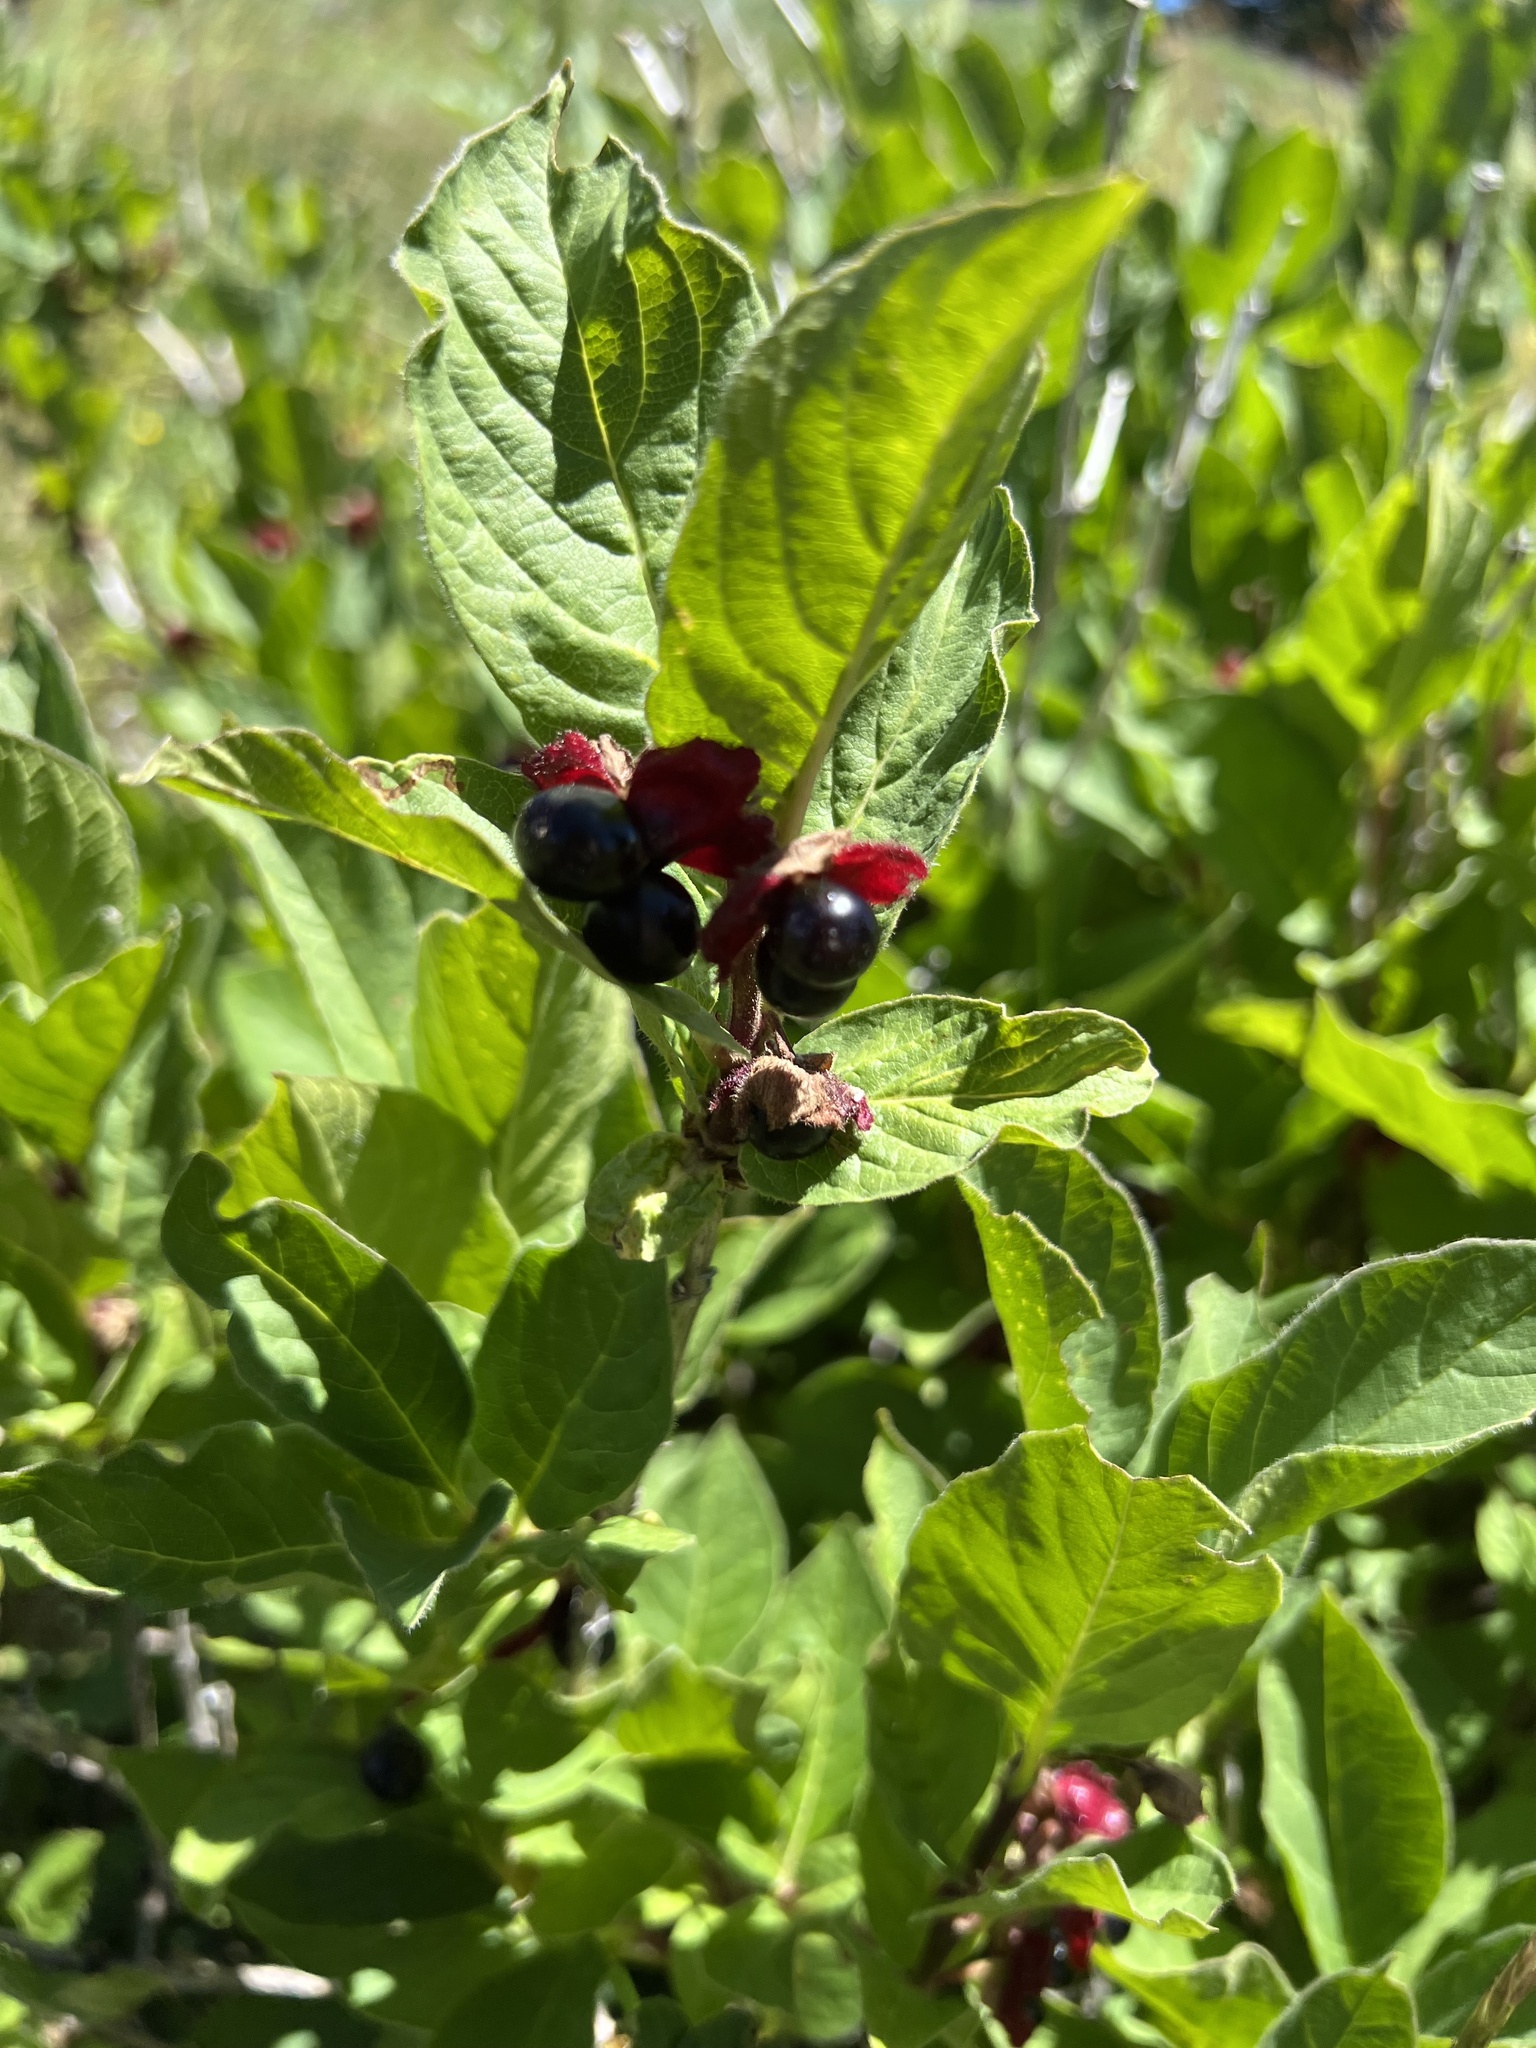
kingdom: Plantae
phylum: Tracheophyta
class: Magnoliopsida
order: Dipsacales
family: Caprifoliaceae
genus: Lonicera
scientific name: Lonicera involucrata
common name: Californian honeysuckle
